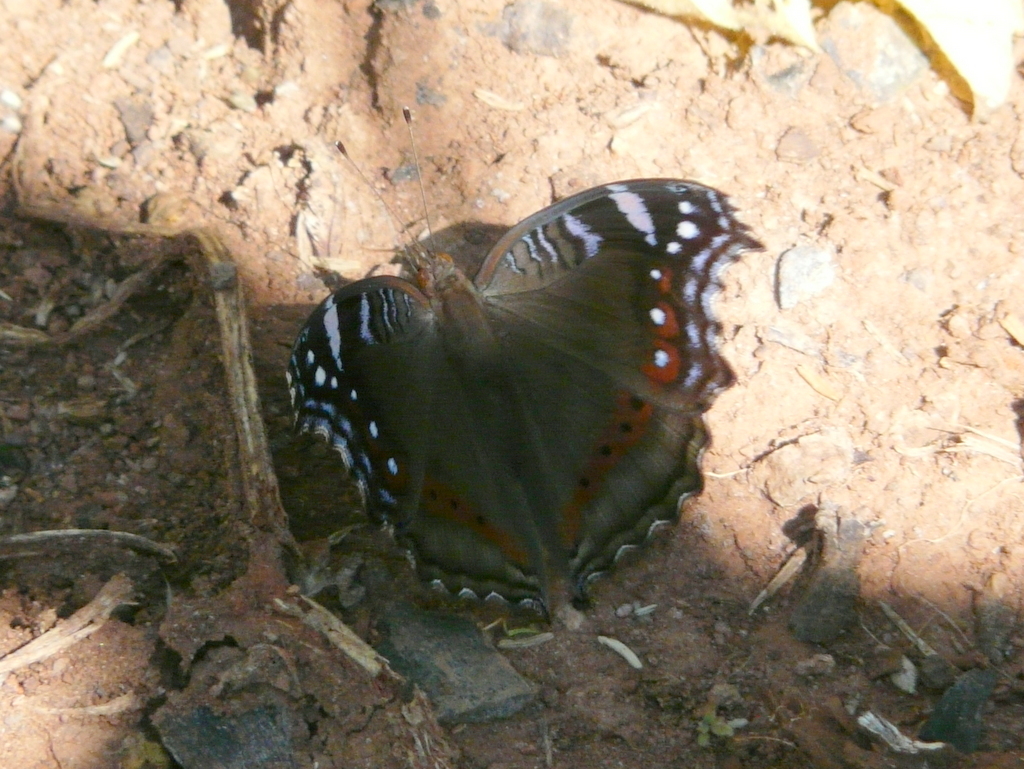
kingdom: Animalia
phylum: Arthropoda
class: Insecta
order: Lepidoptera
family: Nymphalidae
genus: Junonia
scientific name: Junonia archesia
